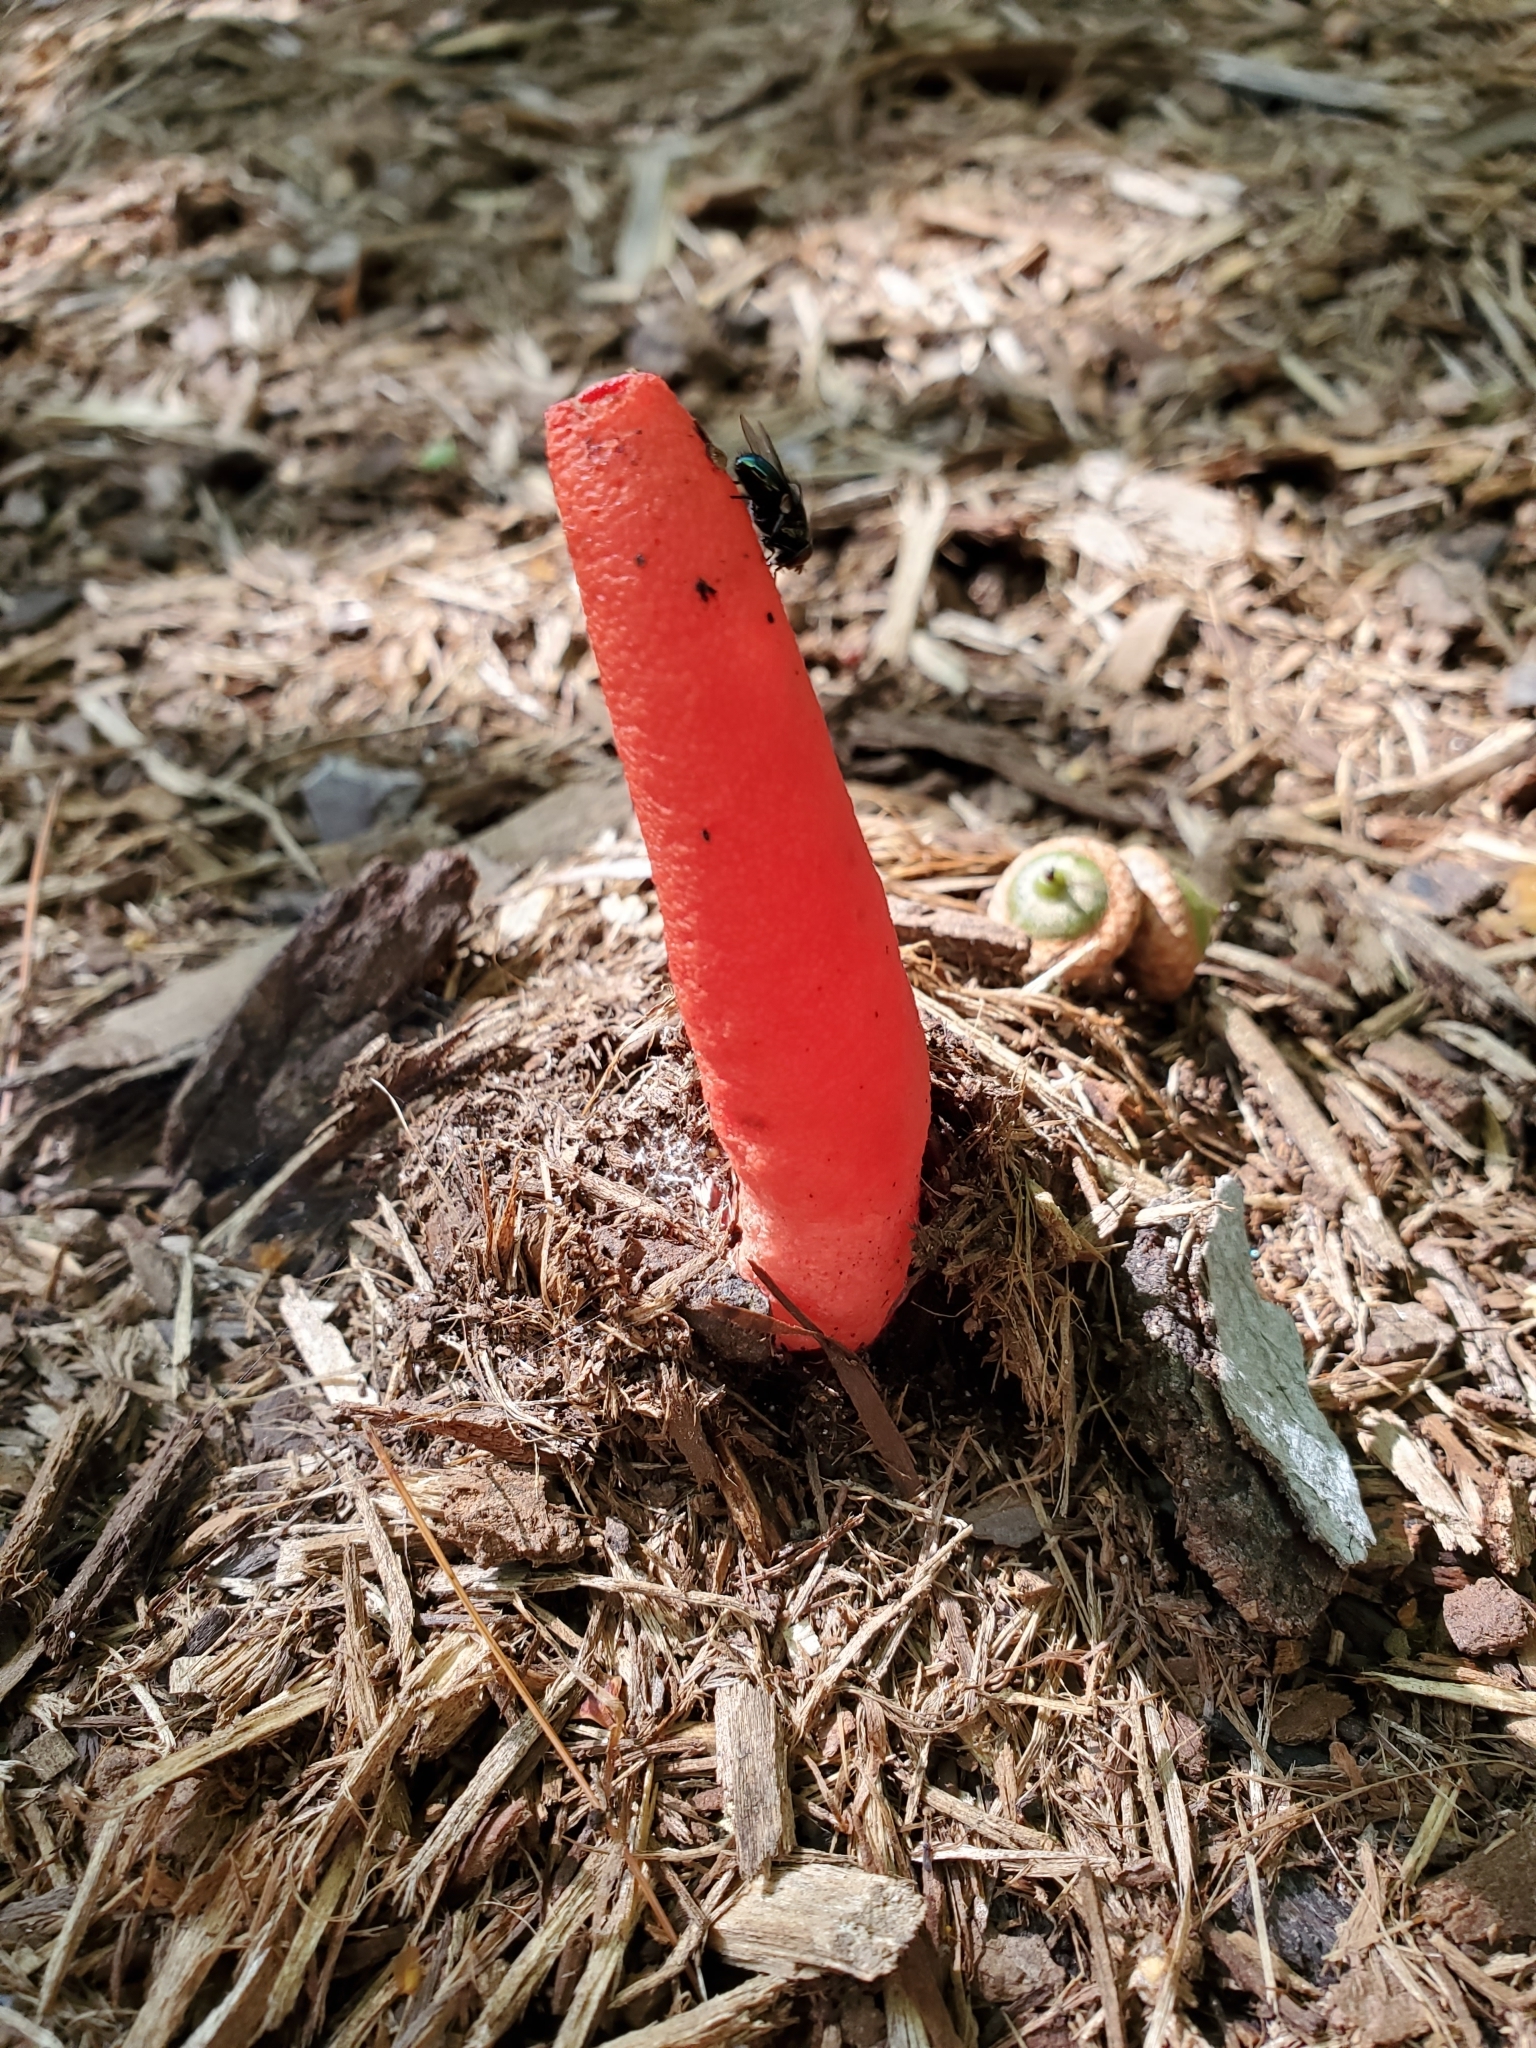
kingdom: Fungi
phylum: Basidiomycota
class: Agaricomycetes
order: Phallales
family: Phallaceae
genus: Mutinus
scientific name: Mutinus elegans
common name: Devil's dipstick
